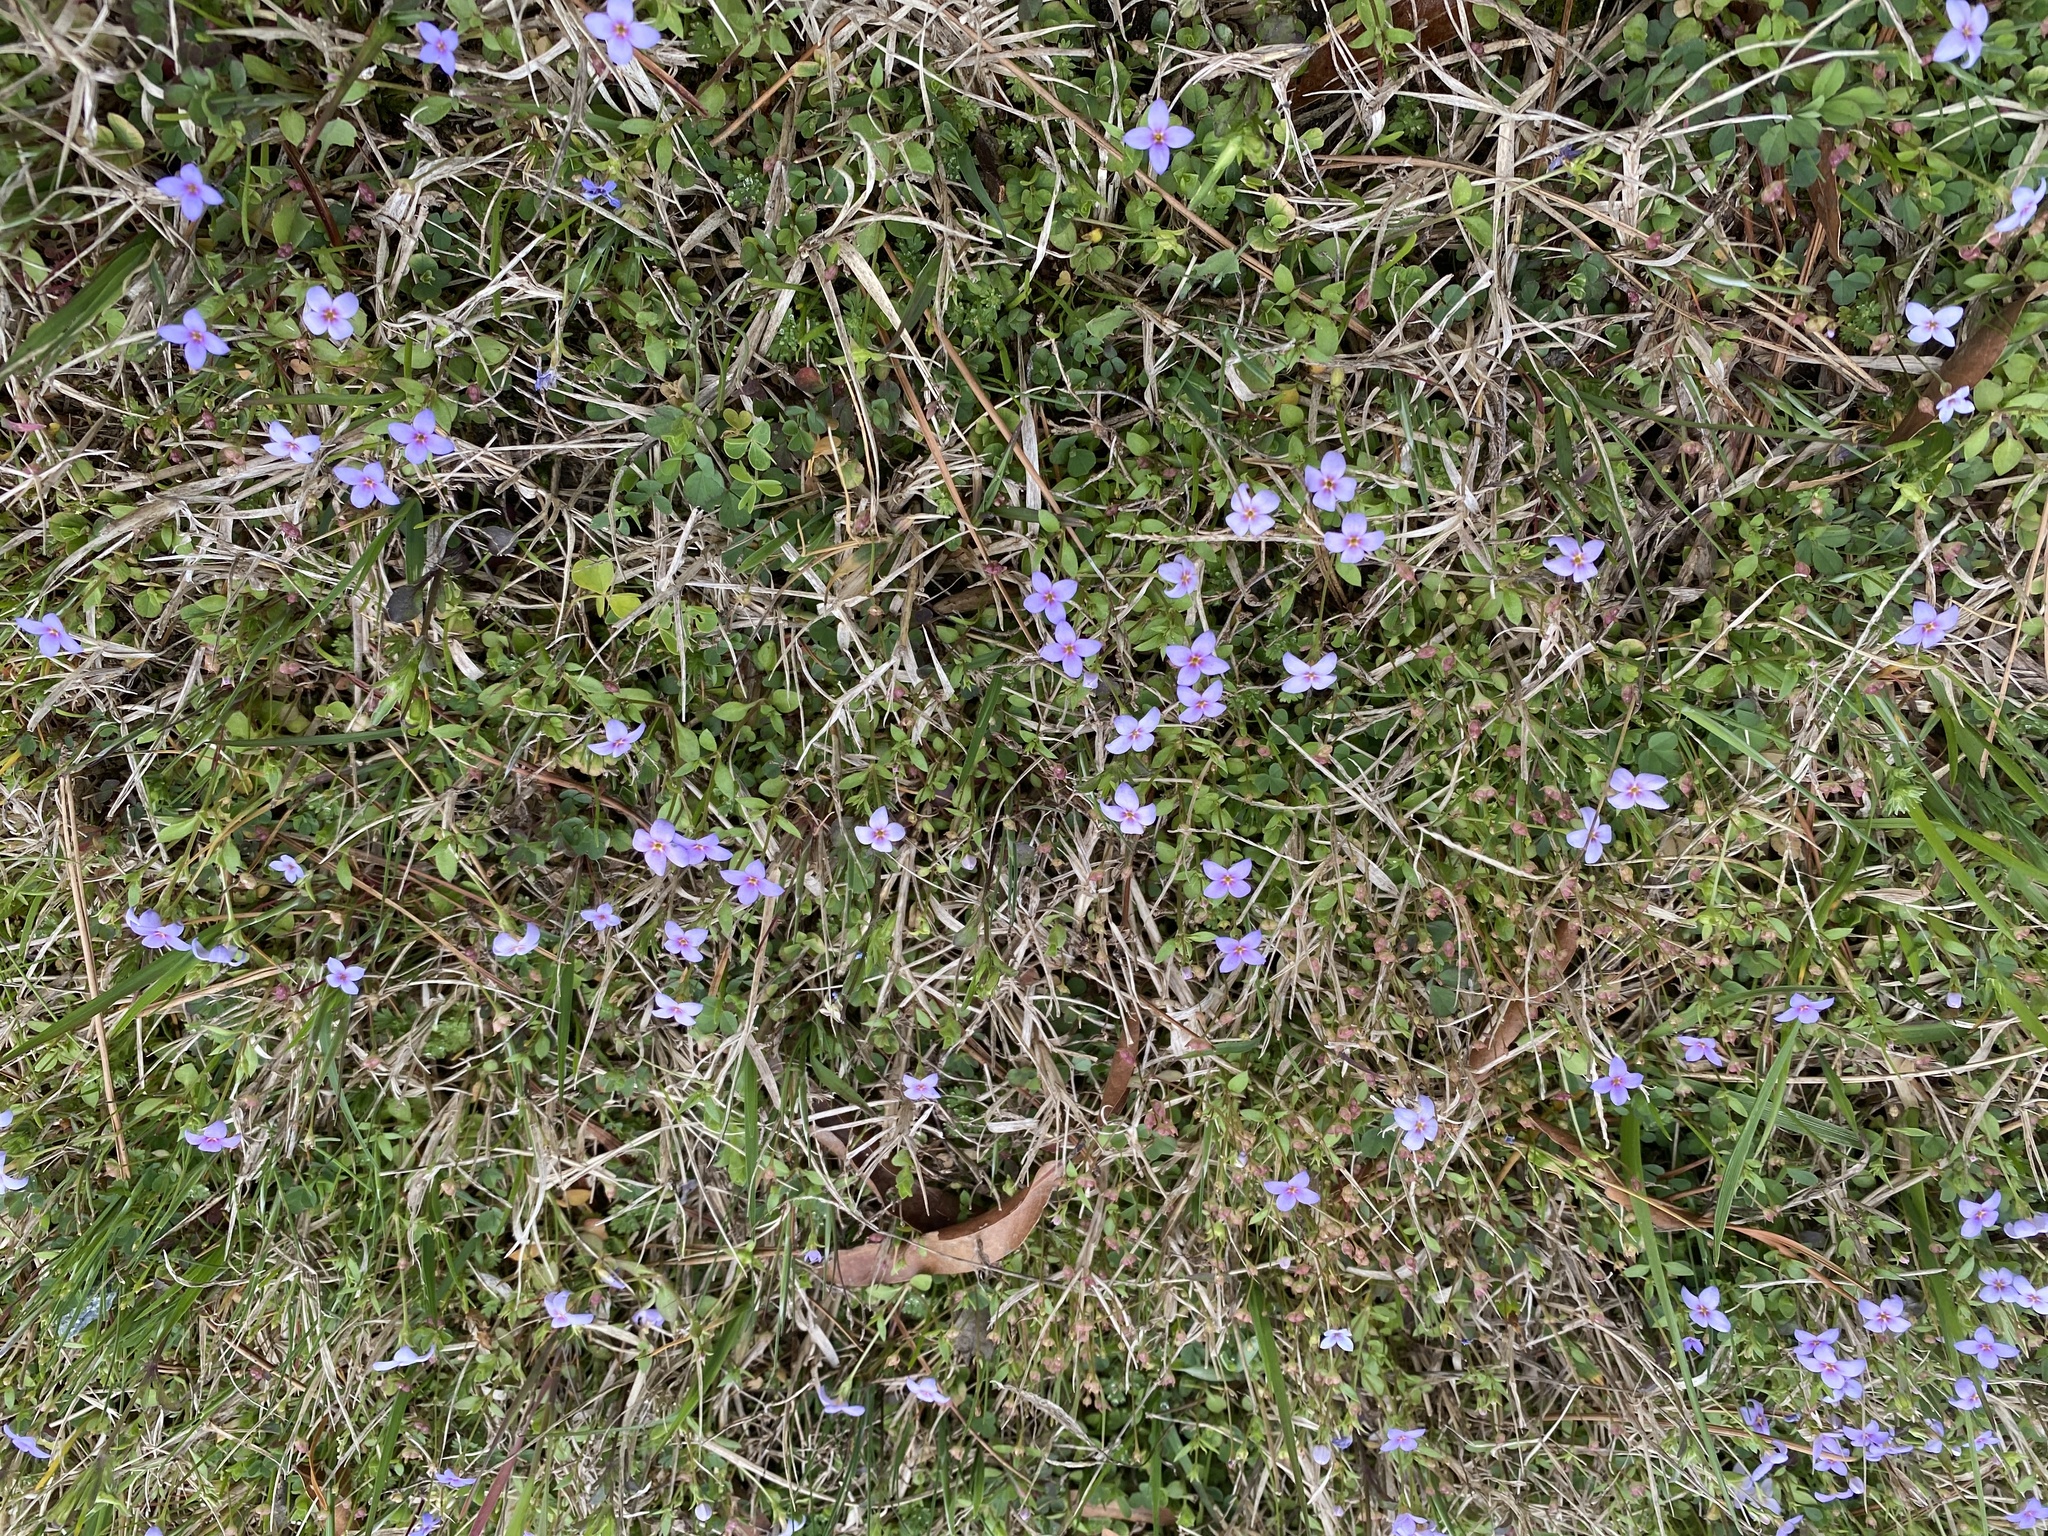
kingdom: Plantae
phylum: Tracheophyta
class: Magnoliopsida
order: Gentianales
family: Rubiaceae
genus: Houstonia
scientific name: Houstonia pusilla
